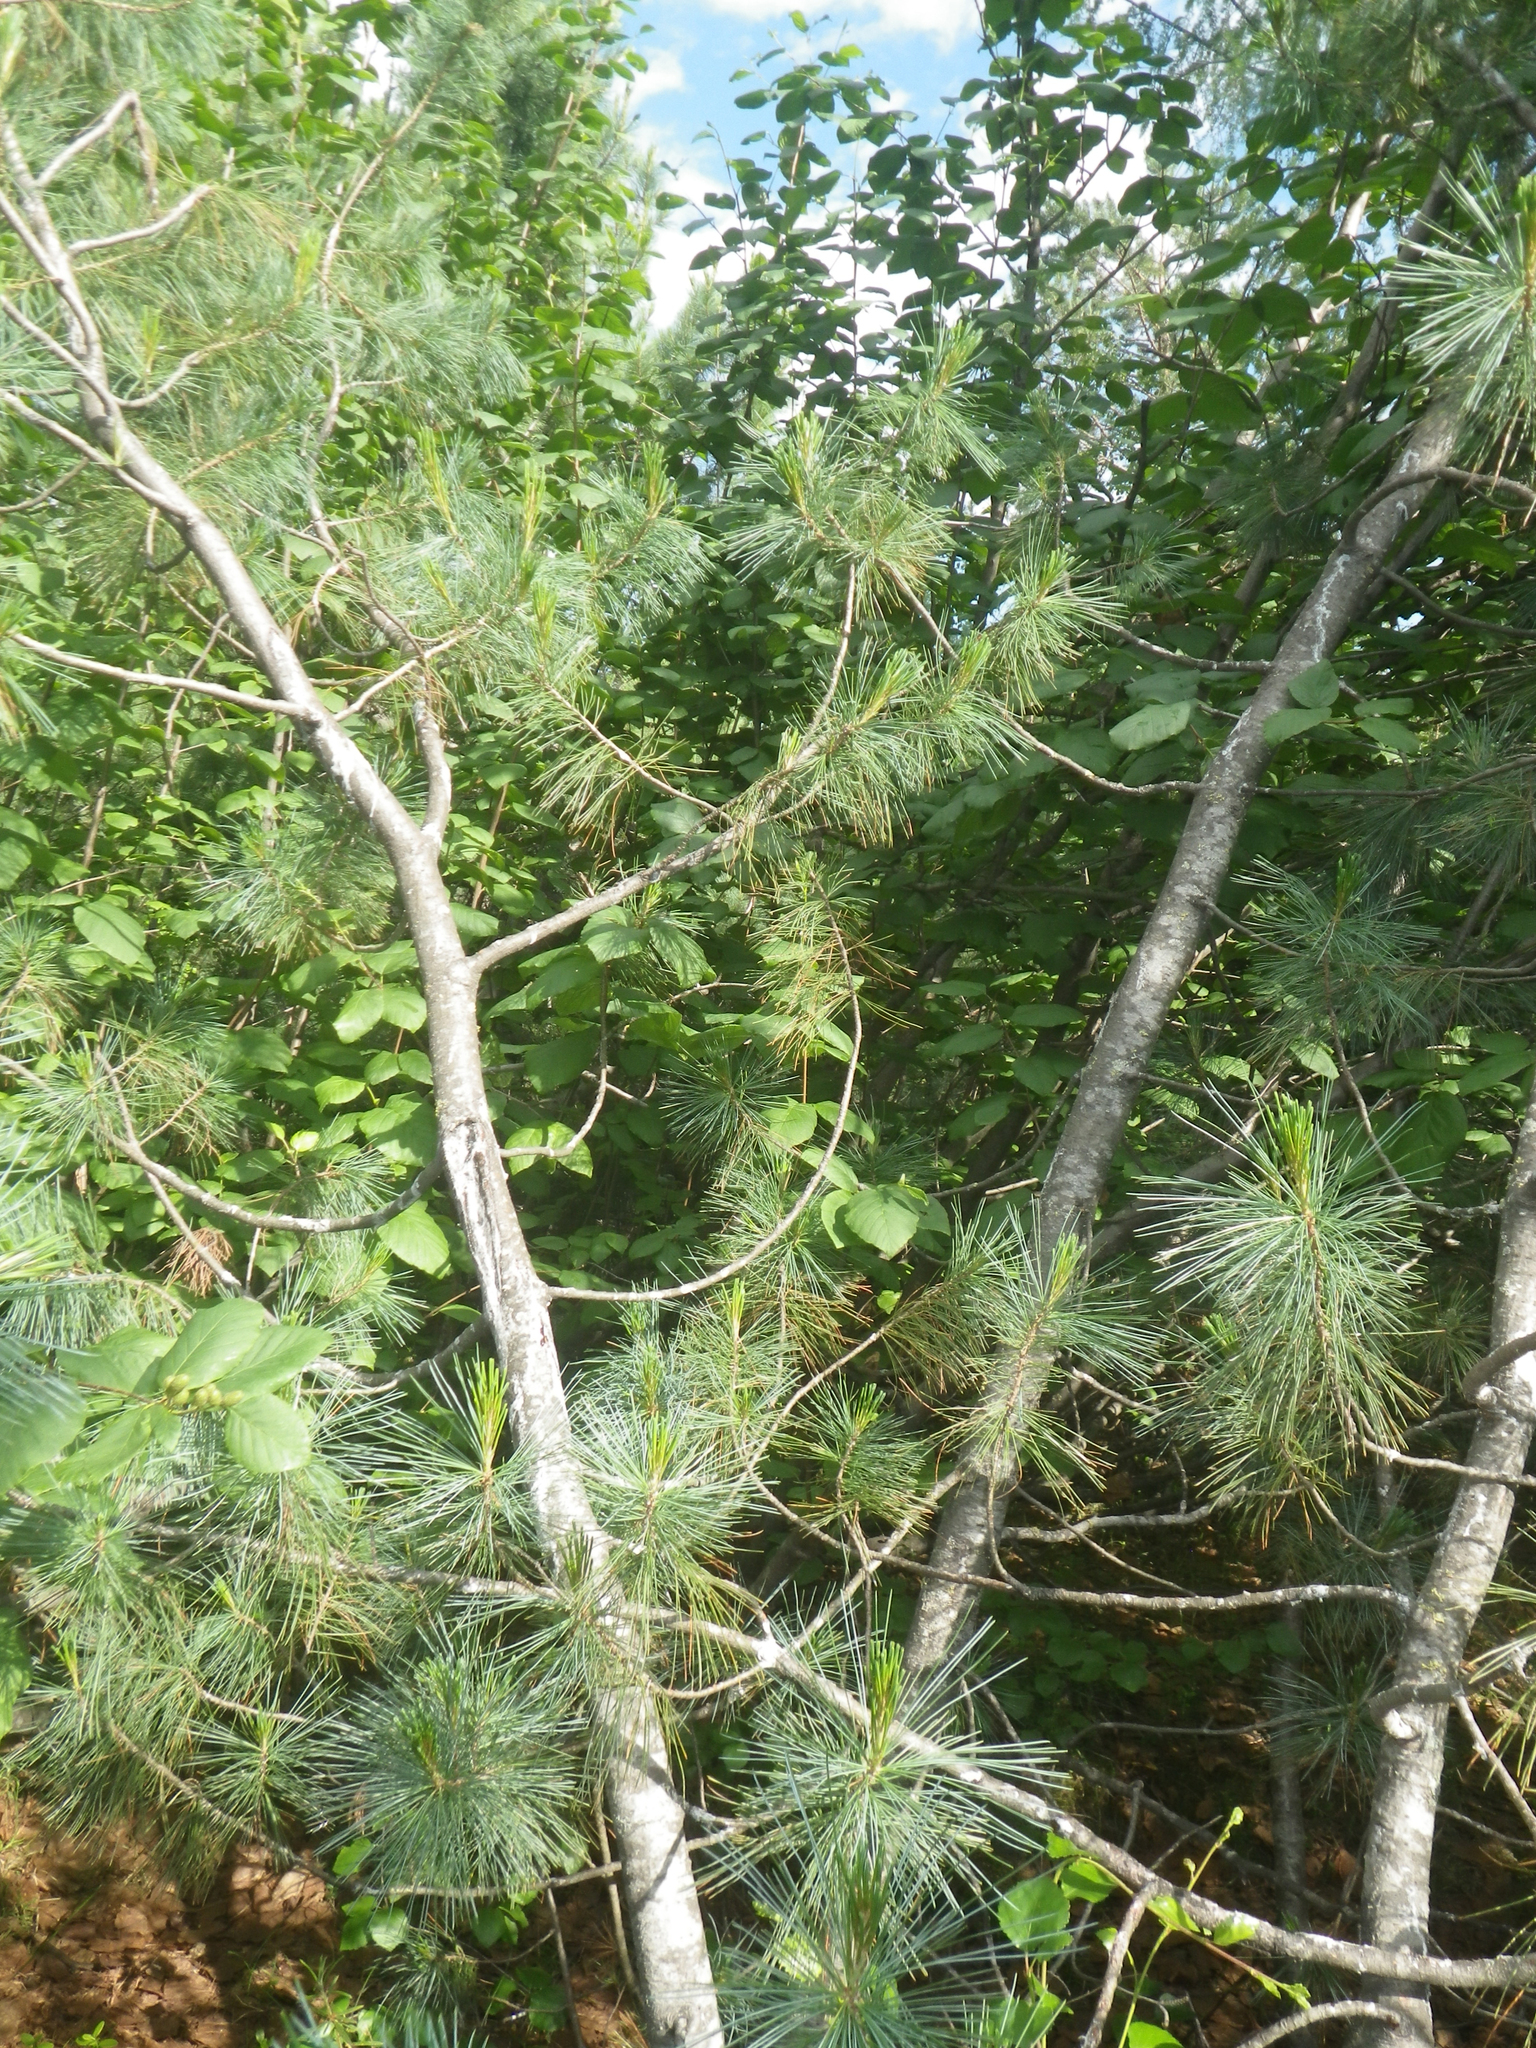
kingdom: Plantae
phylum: Tracheophyta
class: Pinopsida
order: Pinales
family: Pinaceae
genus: Pinus
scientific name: Pinus pumila
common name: Dwarf siberian pine
